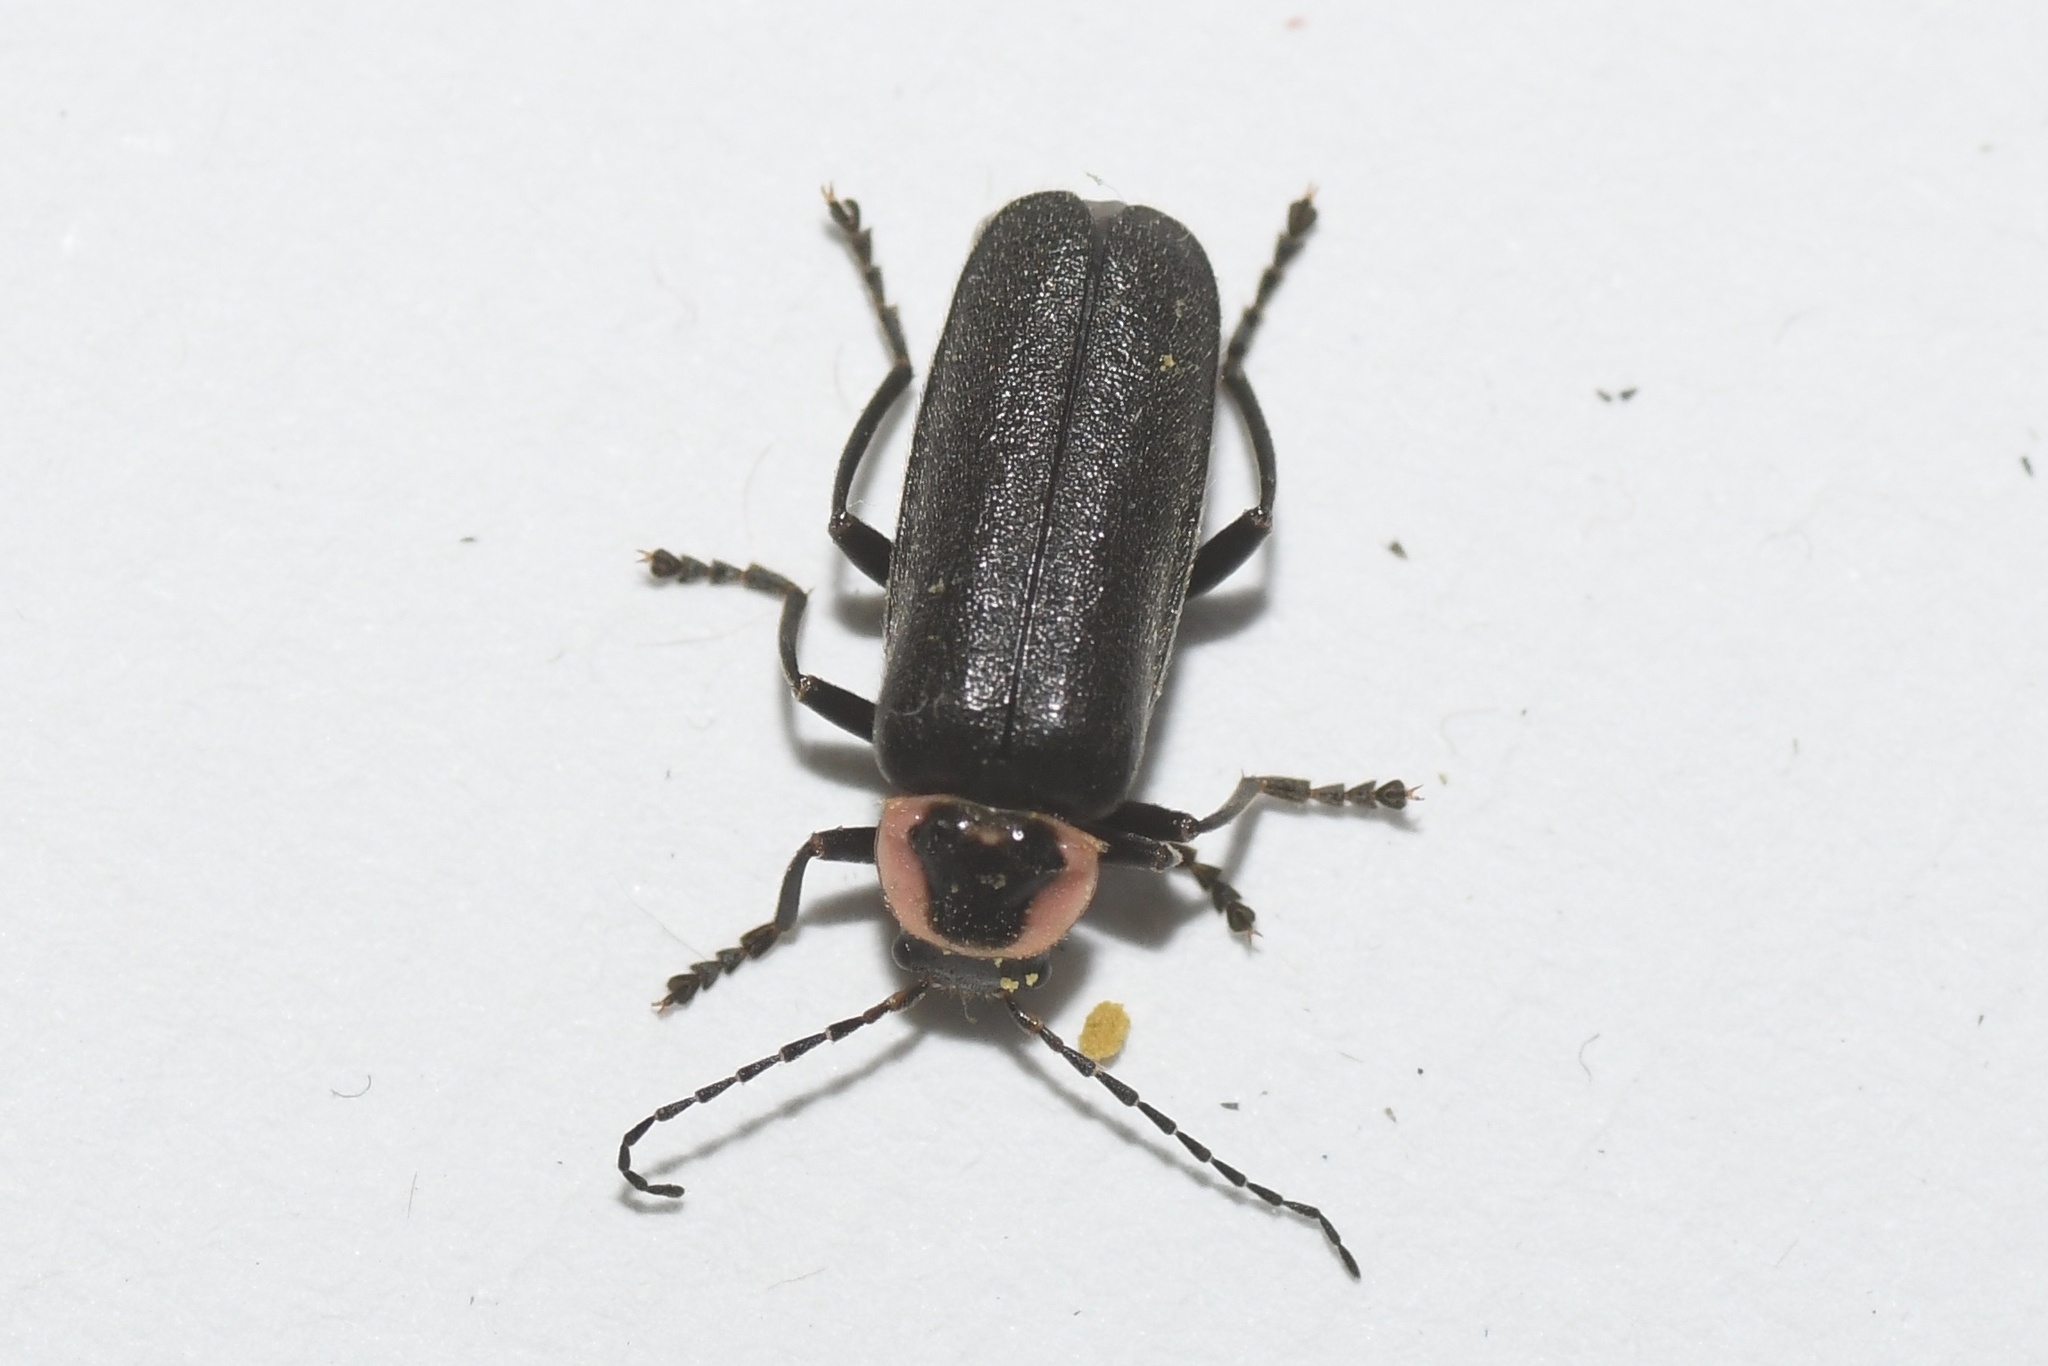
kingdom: Animalia
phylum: Arthropoda
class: Insecta
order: Coleoptera
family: Cantharidae
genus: Rhaxonycha
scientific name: Rhaxonycha carolina
